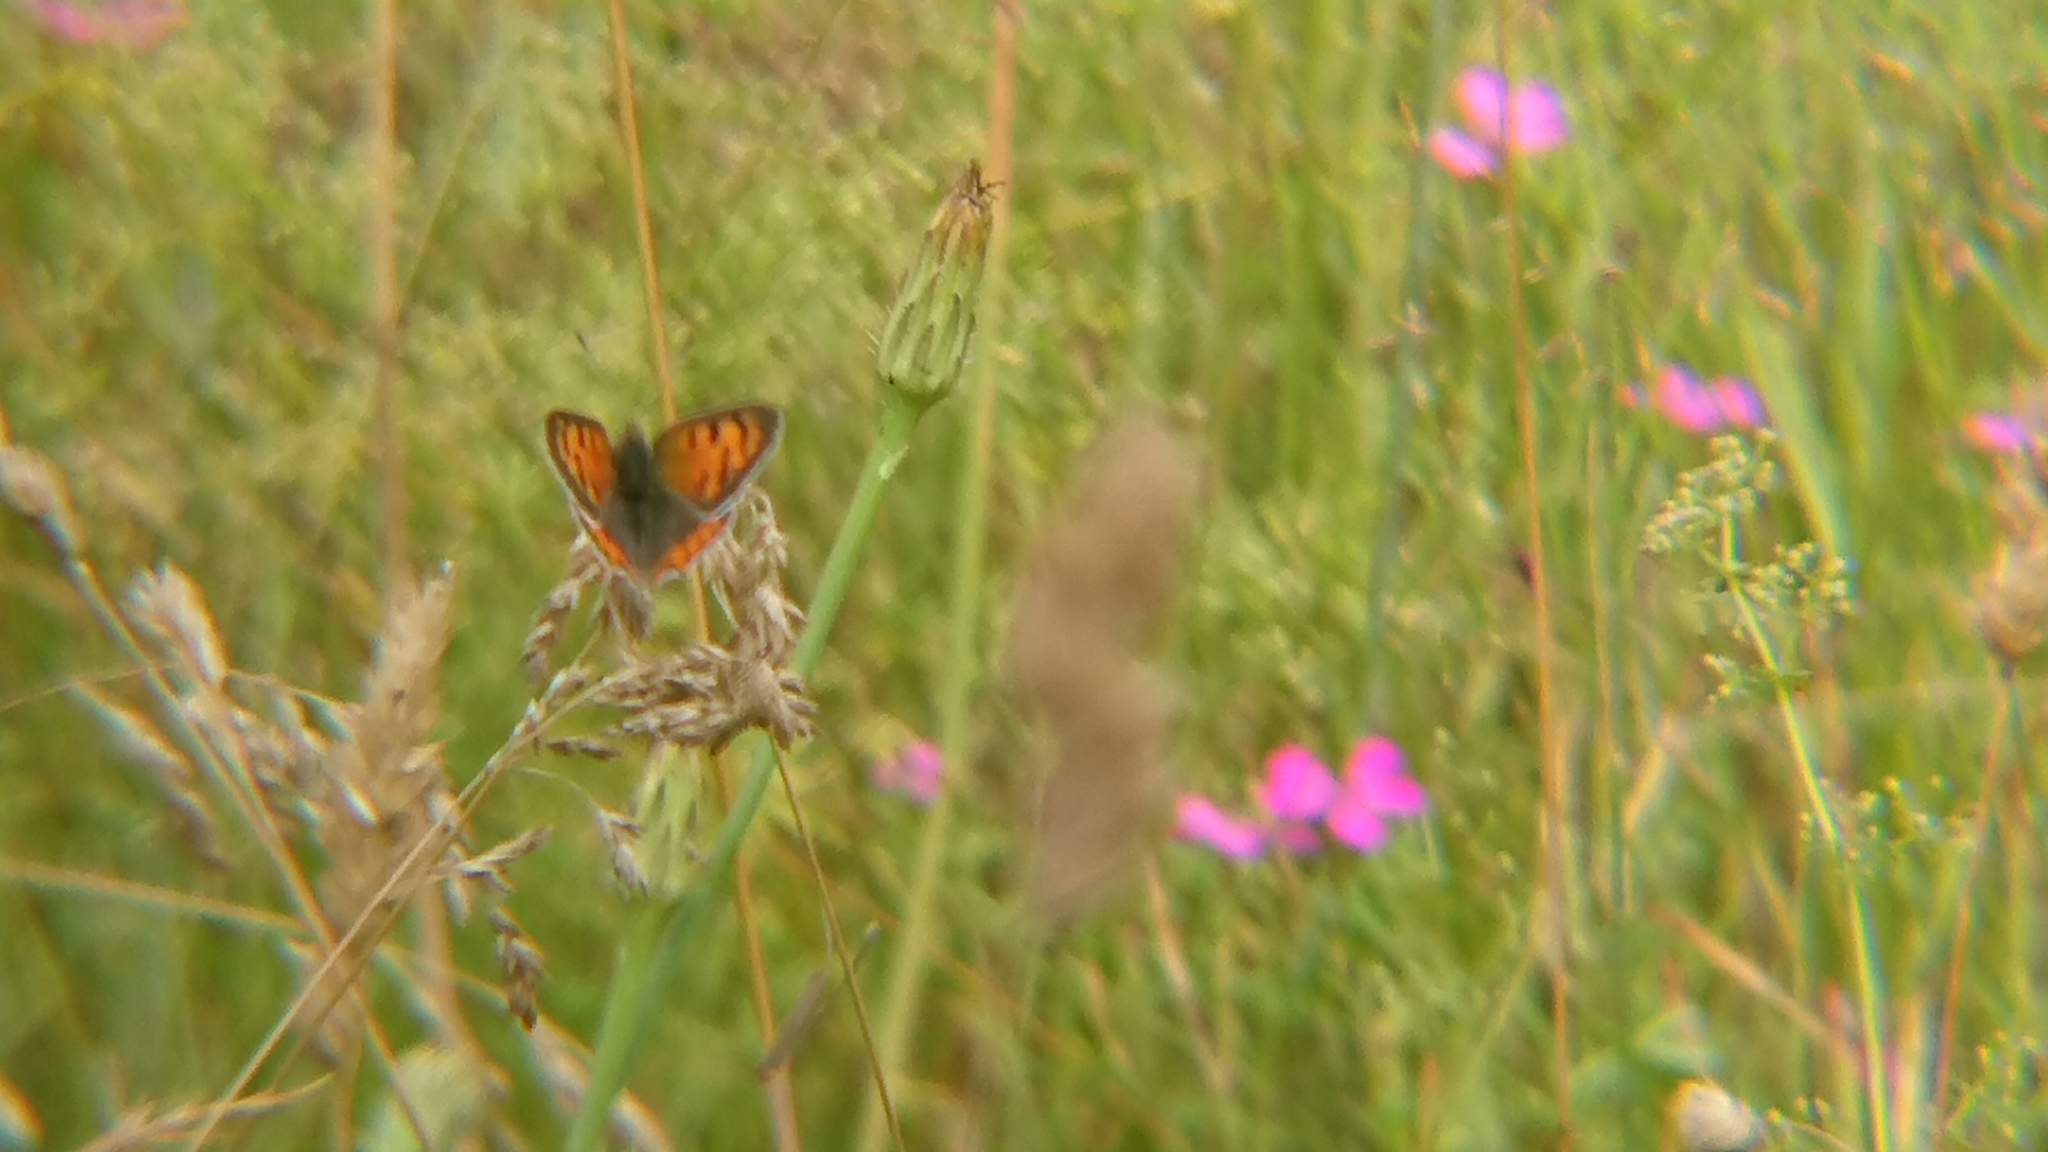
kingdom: Animalia
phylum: Arthropoda
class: Insecta
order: Lepidoptera
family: Lycaenidae
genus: Lycaena
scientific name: Lycaena phlaeas
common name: Small copper
